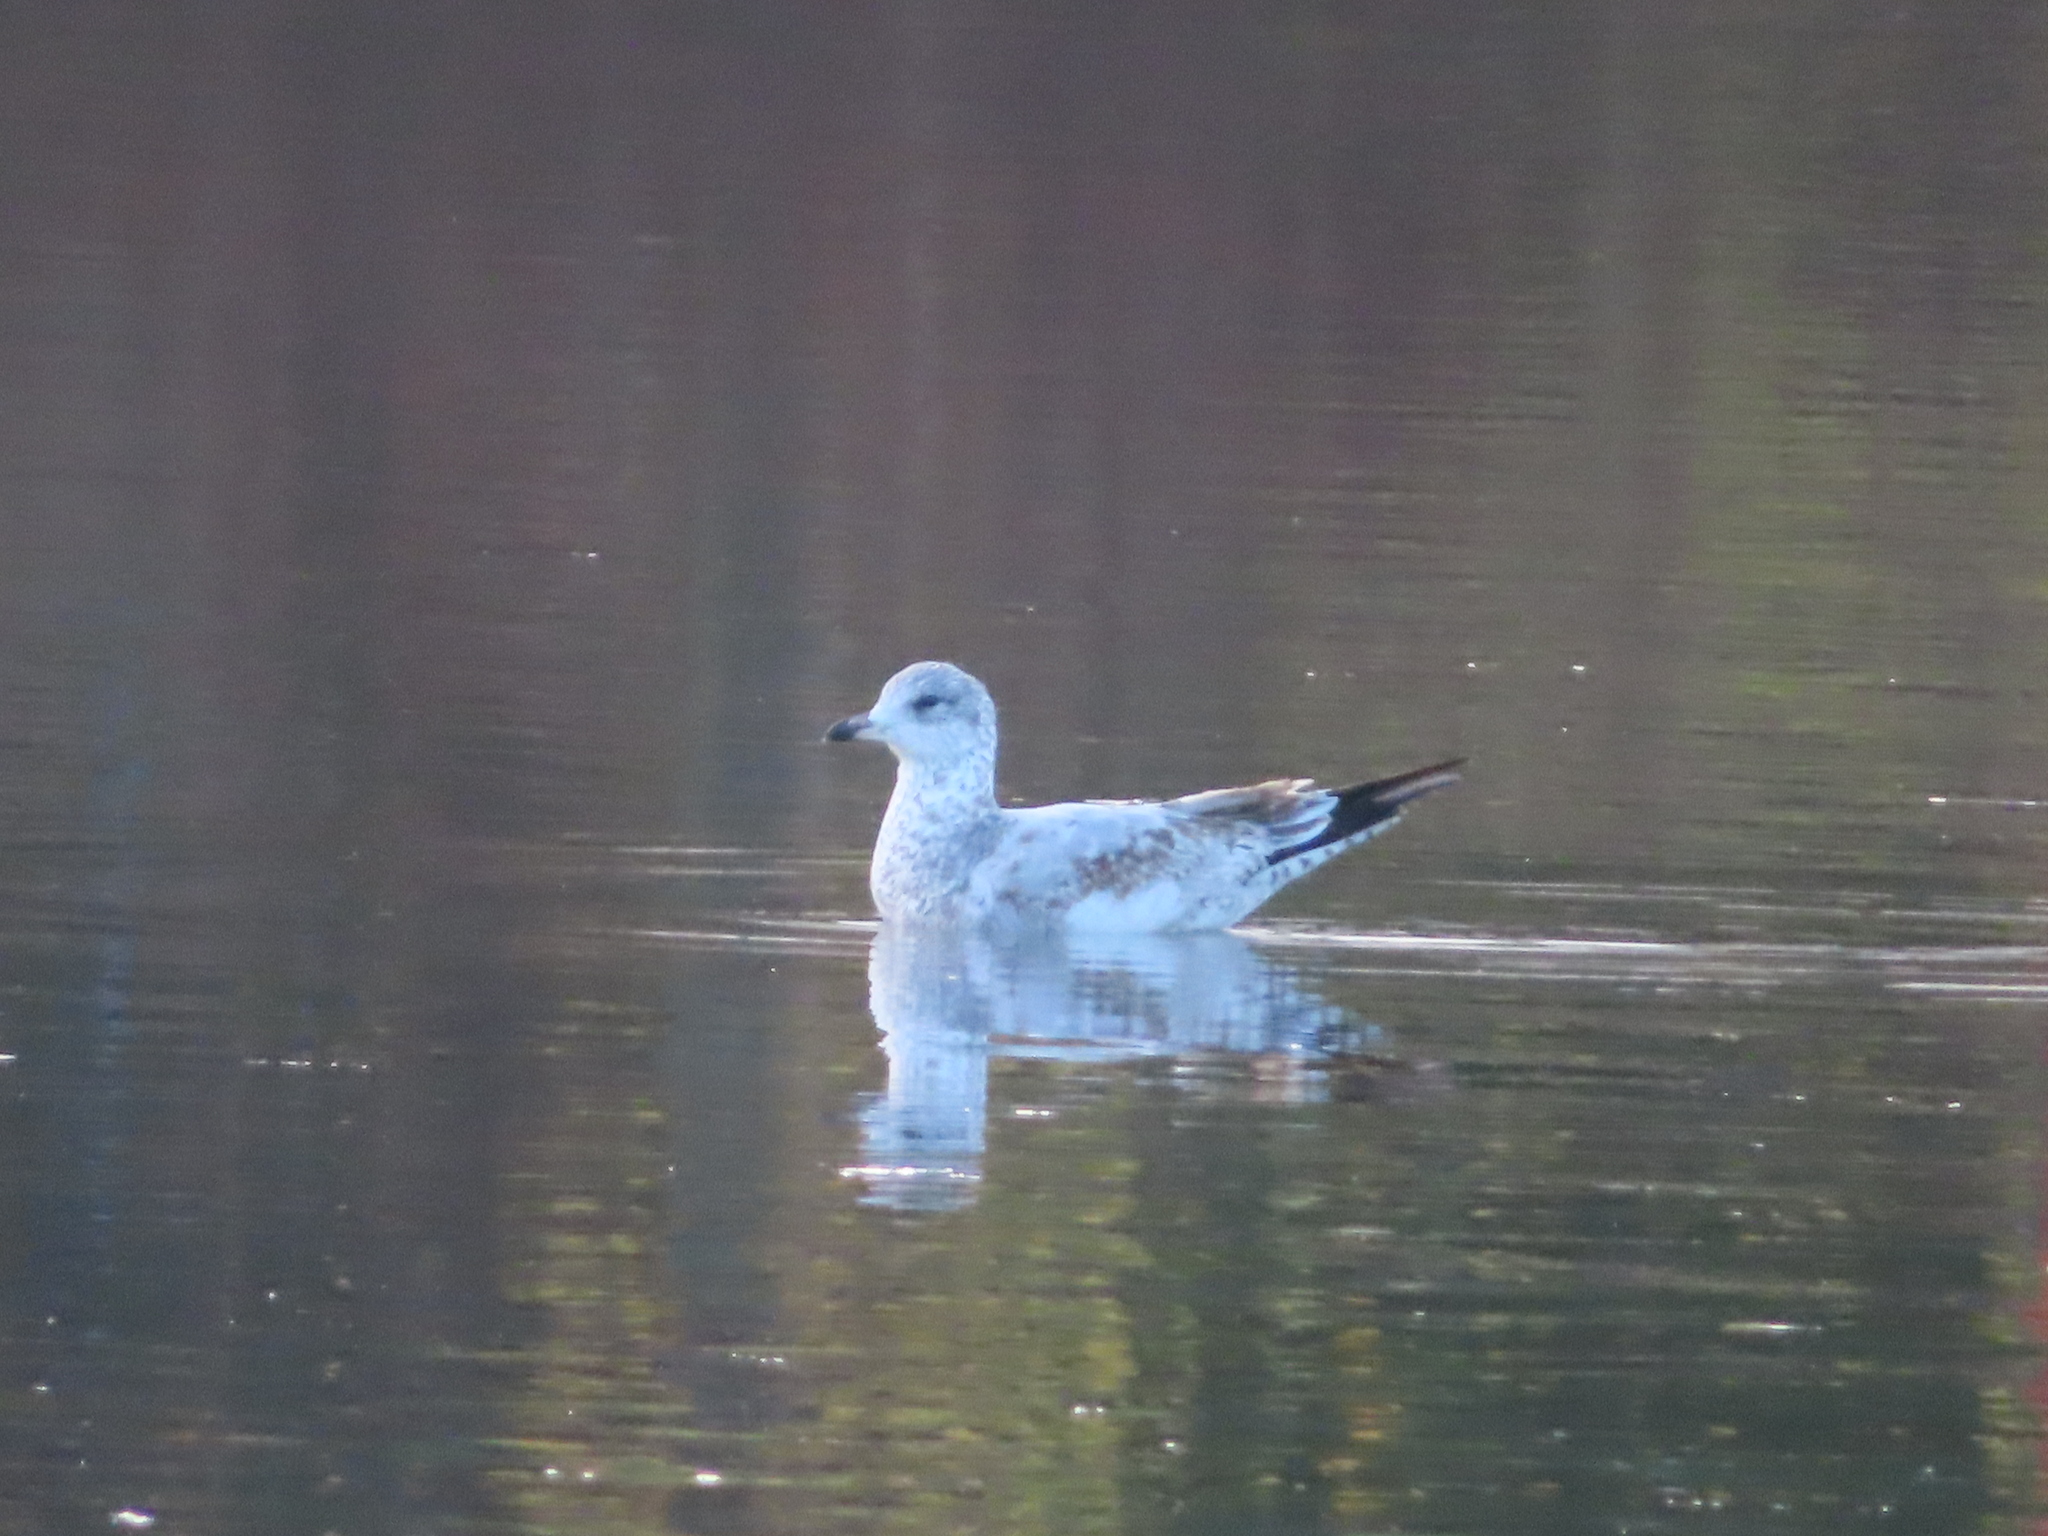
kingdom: Animalia
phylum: Chordata
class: Aves
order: Charadriiformes
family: Laridae
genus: Larus
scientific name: Larus delawarensis
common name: Ring-billed gull
